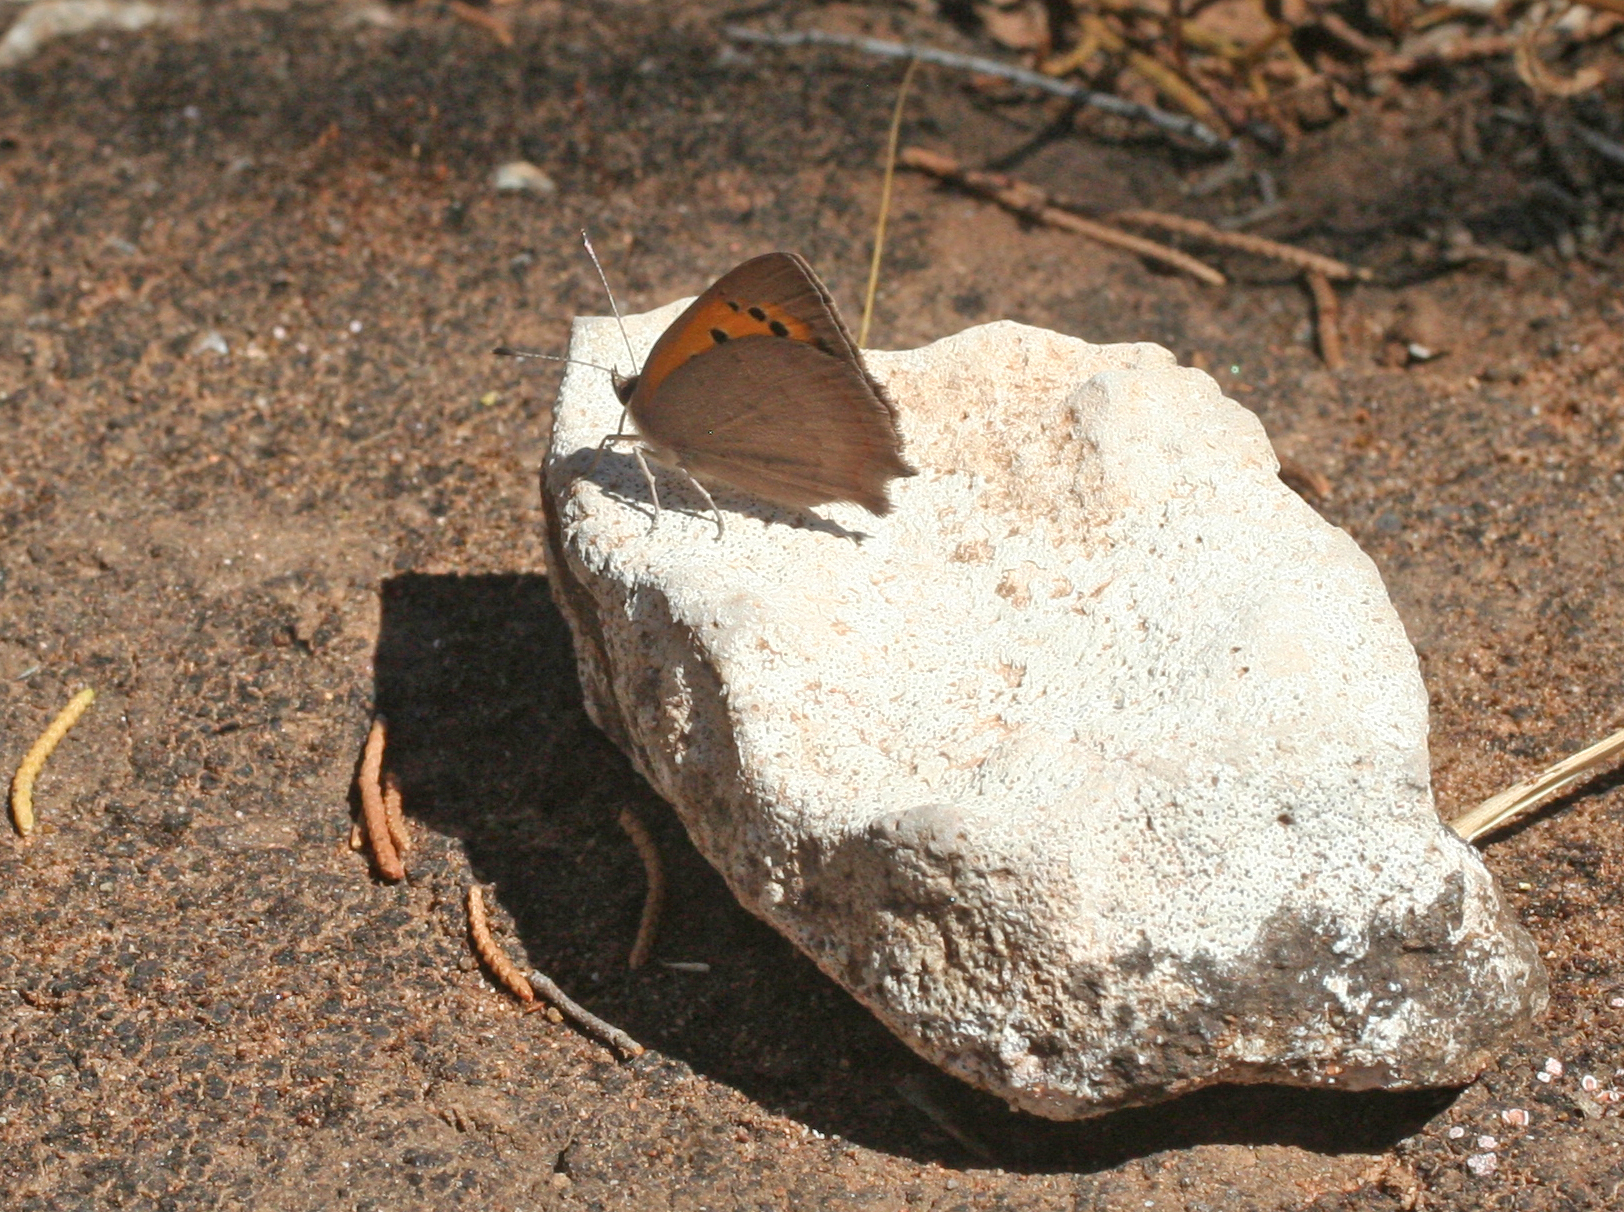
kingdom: Animalia
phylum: Arthropoda
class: Insecta
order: Lepidoptera
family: Lycaenidae
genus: Lycaena
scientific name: Lycaena phlaeas
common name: Small copper
